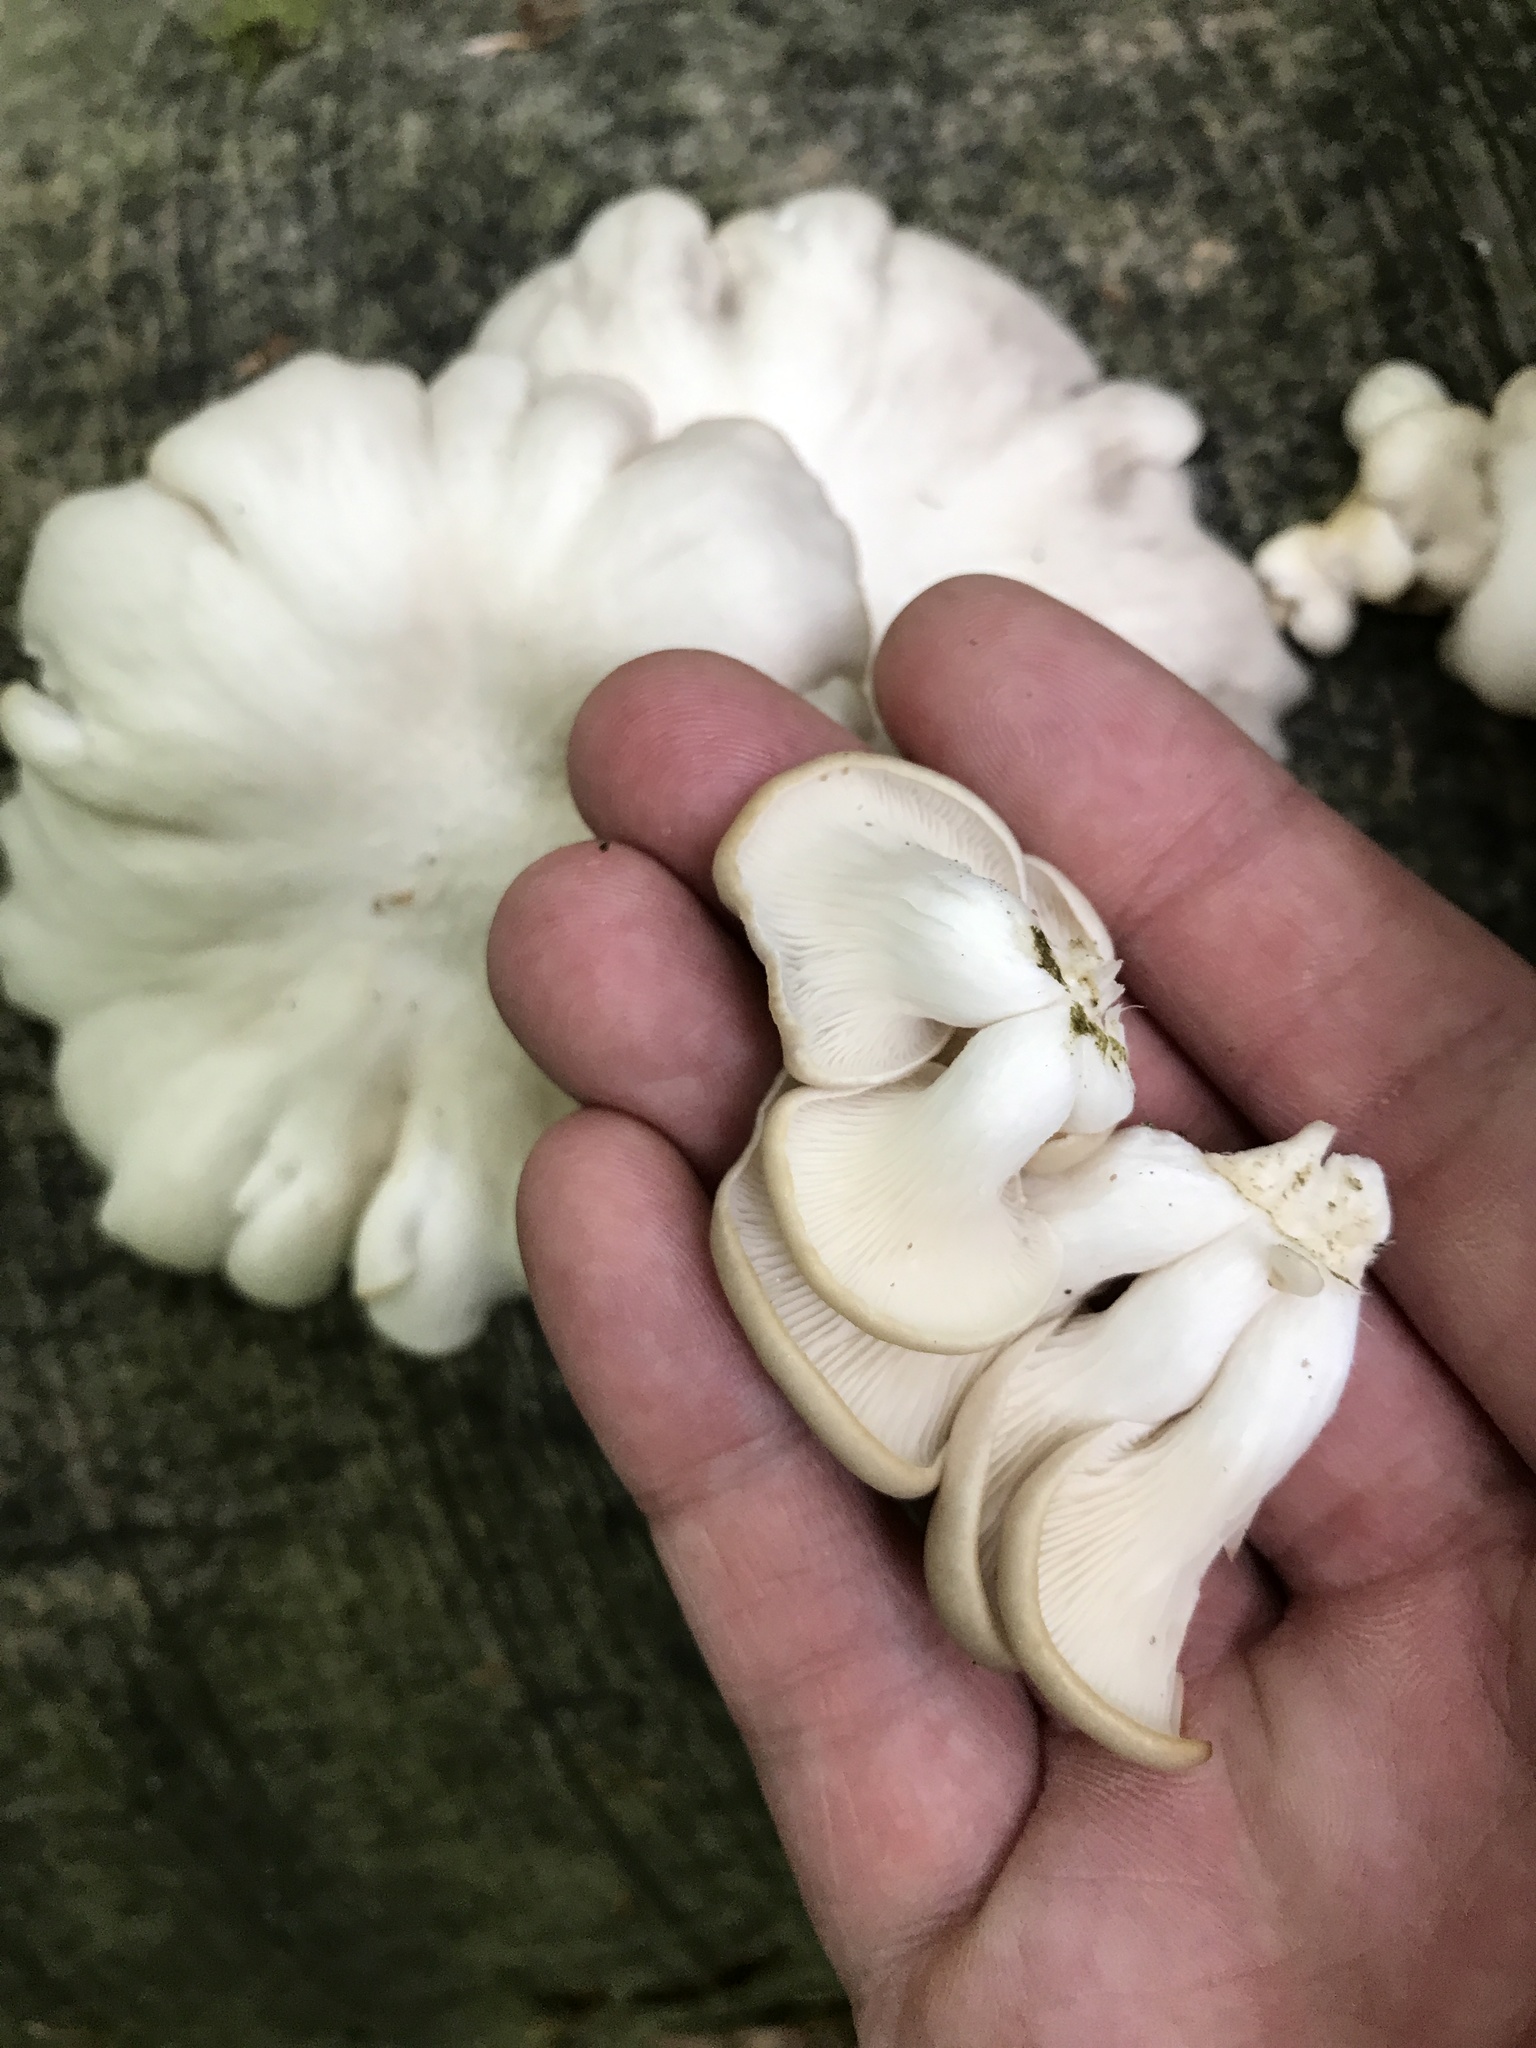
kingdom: Fungi
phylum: Basidiomycota
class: Agaricomycetes
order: Agaricales
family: Pleurotaceae
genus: Pleurotus
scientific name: Pleurotus pulmonarius
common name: Pale oyster
